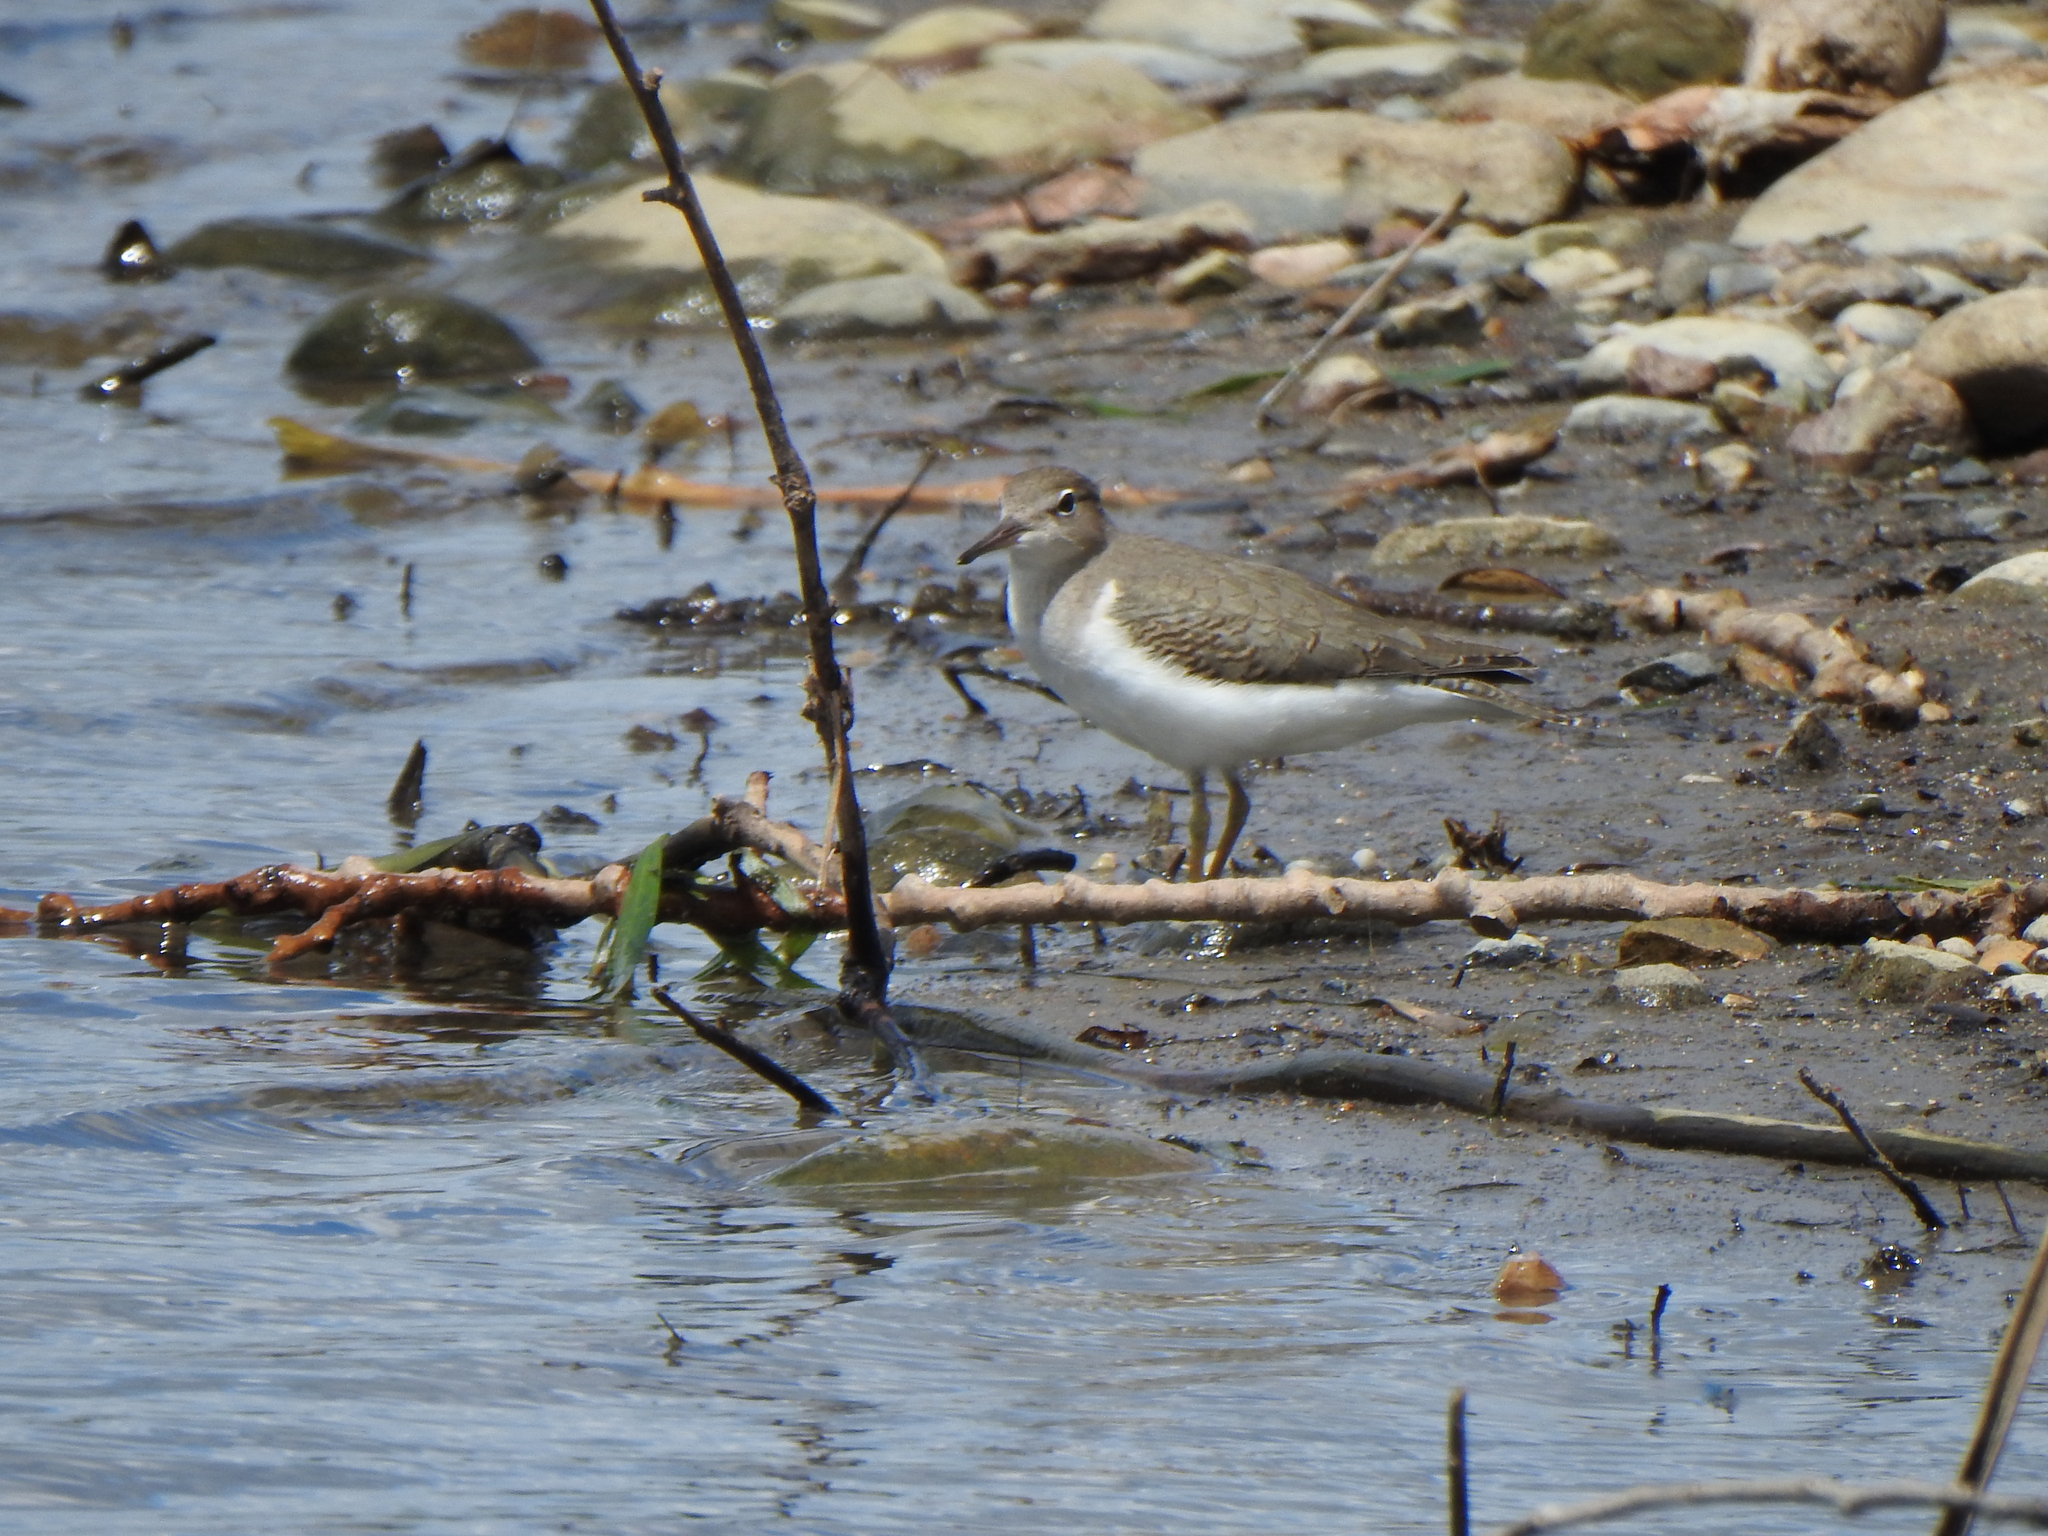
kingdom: Animalia
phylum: Chordata
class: Aves
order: Charadriiformes
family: Scolopacidae
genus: Actitis
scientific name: Actitis macularius
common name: Spotted sandpiper
